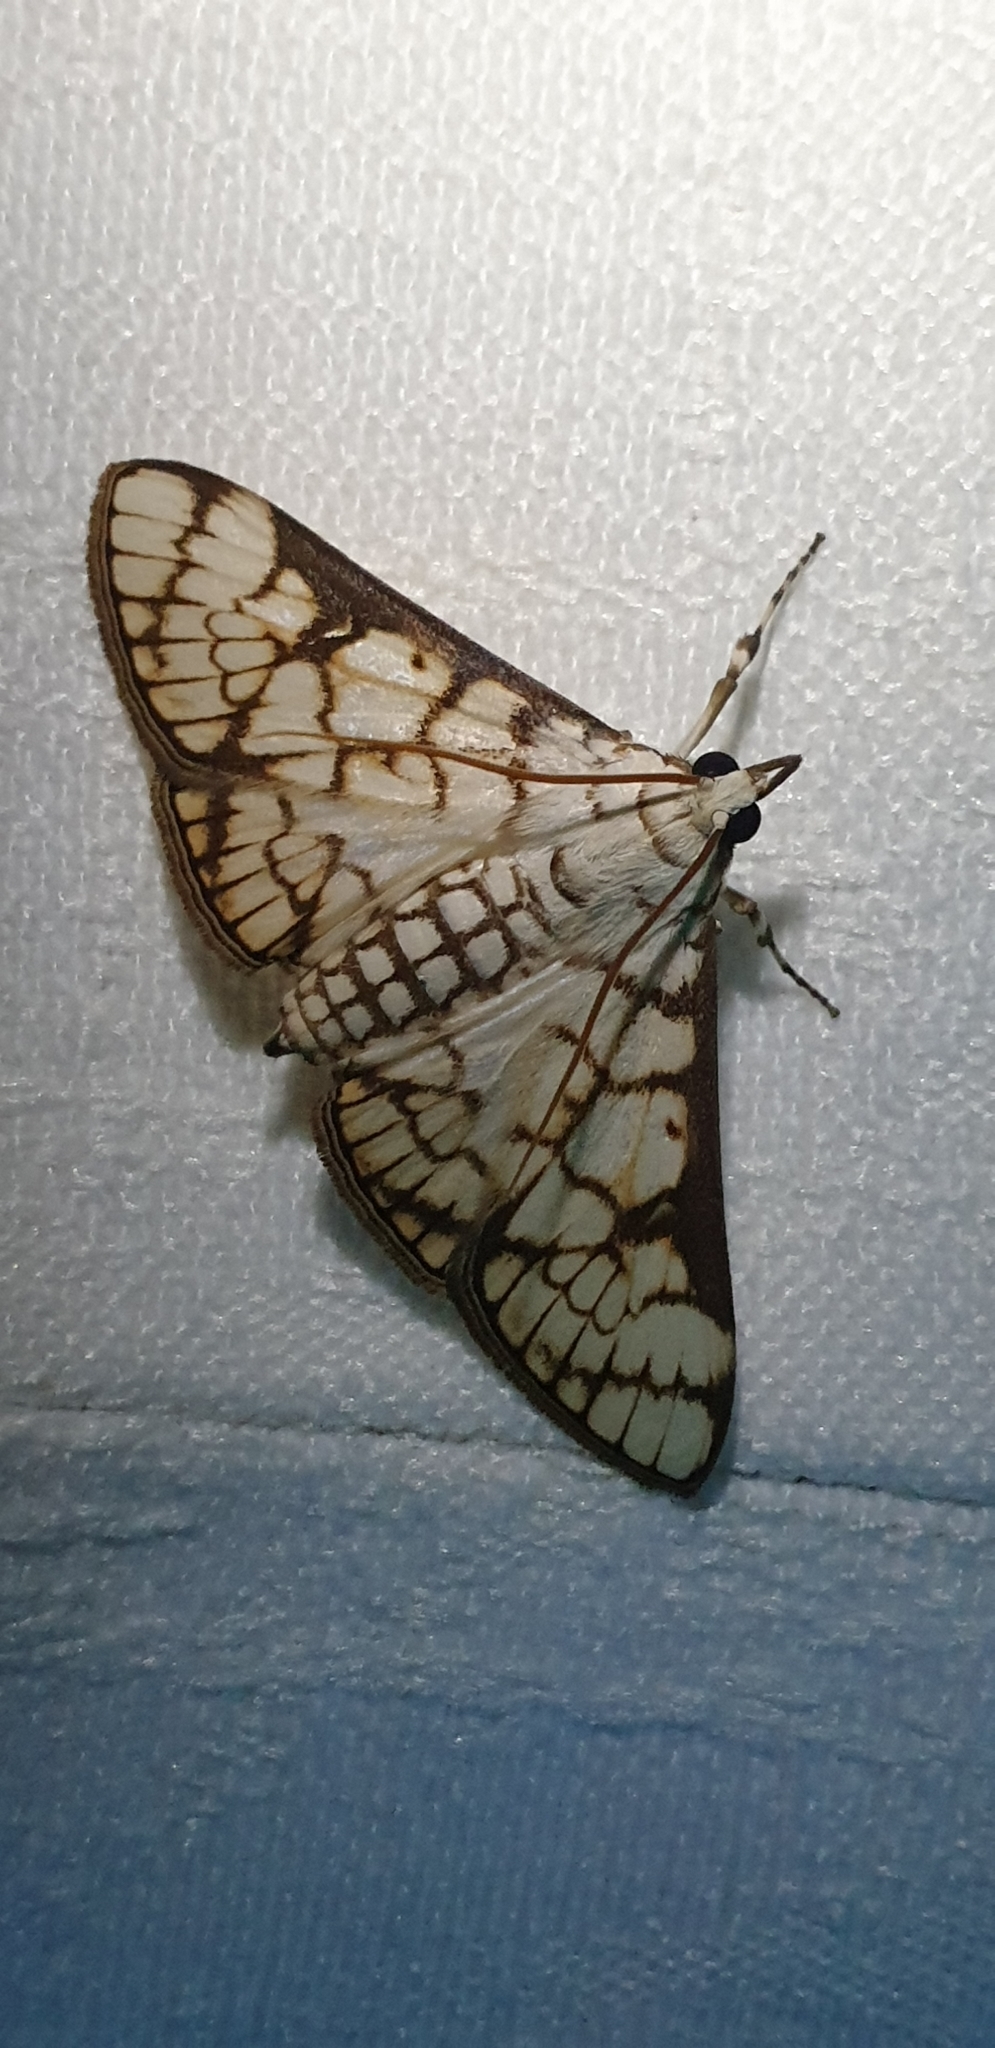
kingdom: Animalia
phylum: Arthropoda
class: Insecta
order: Lepidoptera
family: Crambidae
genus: Aphytoceros
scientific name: Aphytoceros lucusalis
